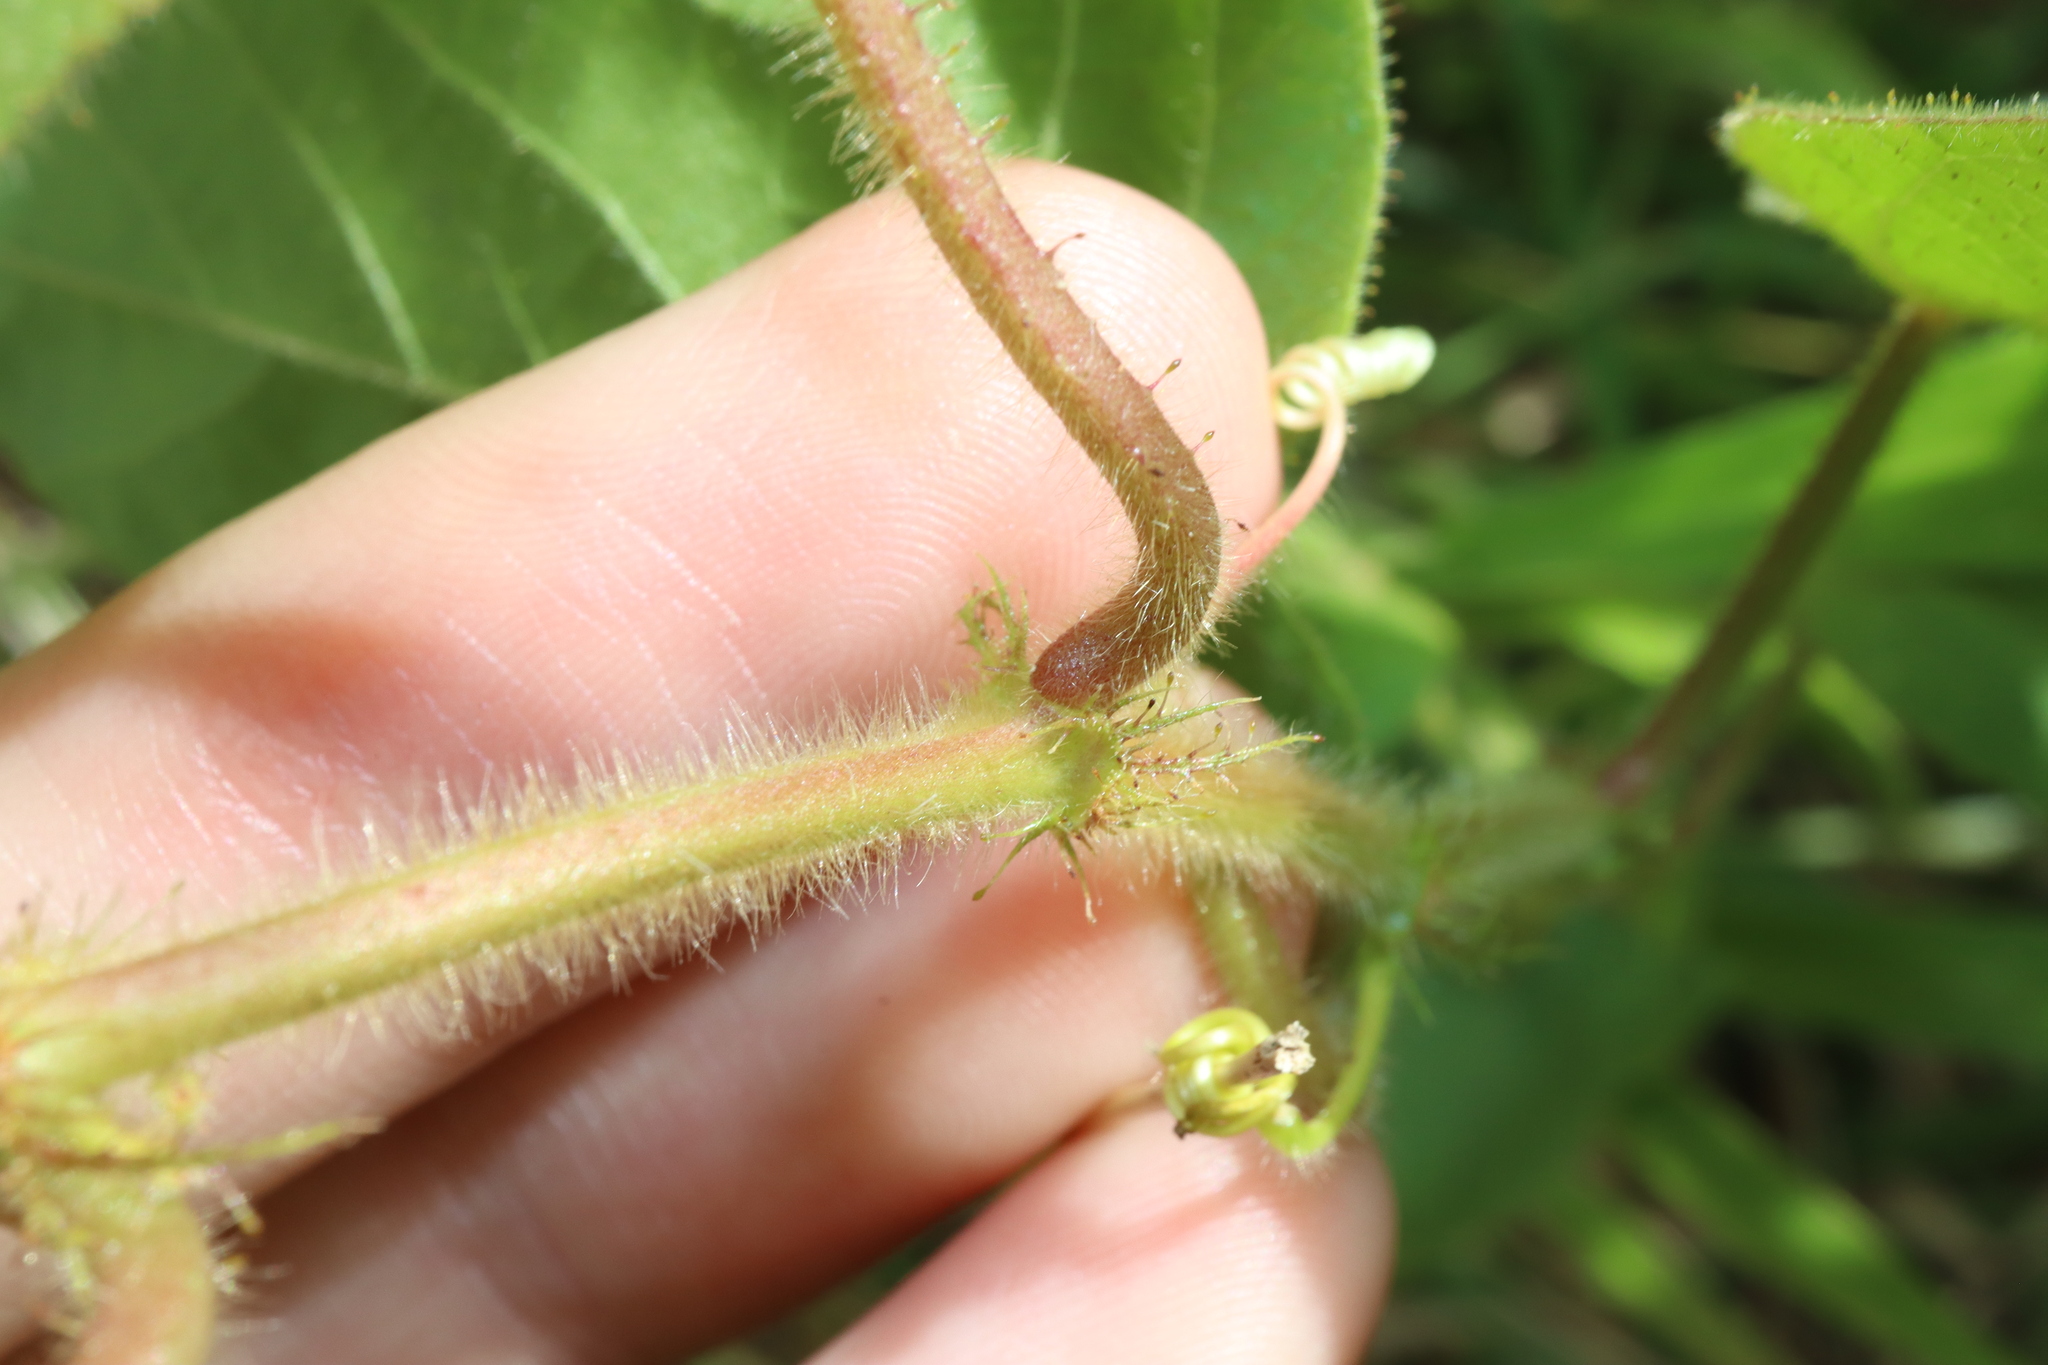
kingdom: Plantae
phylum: Tracheophyta
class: Magnoliopsida
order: Malpighiales
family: Passifloraceae
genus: Passiflora
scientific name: Passiflora vesicaria
